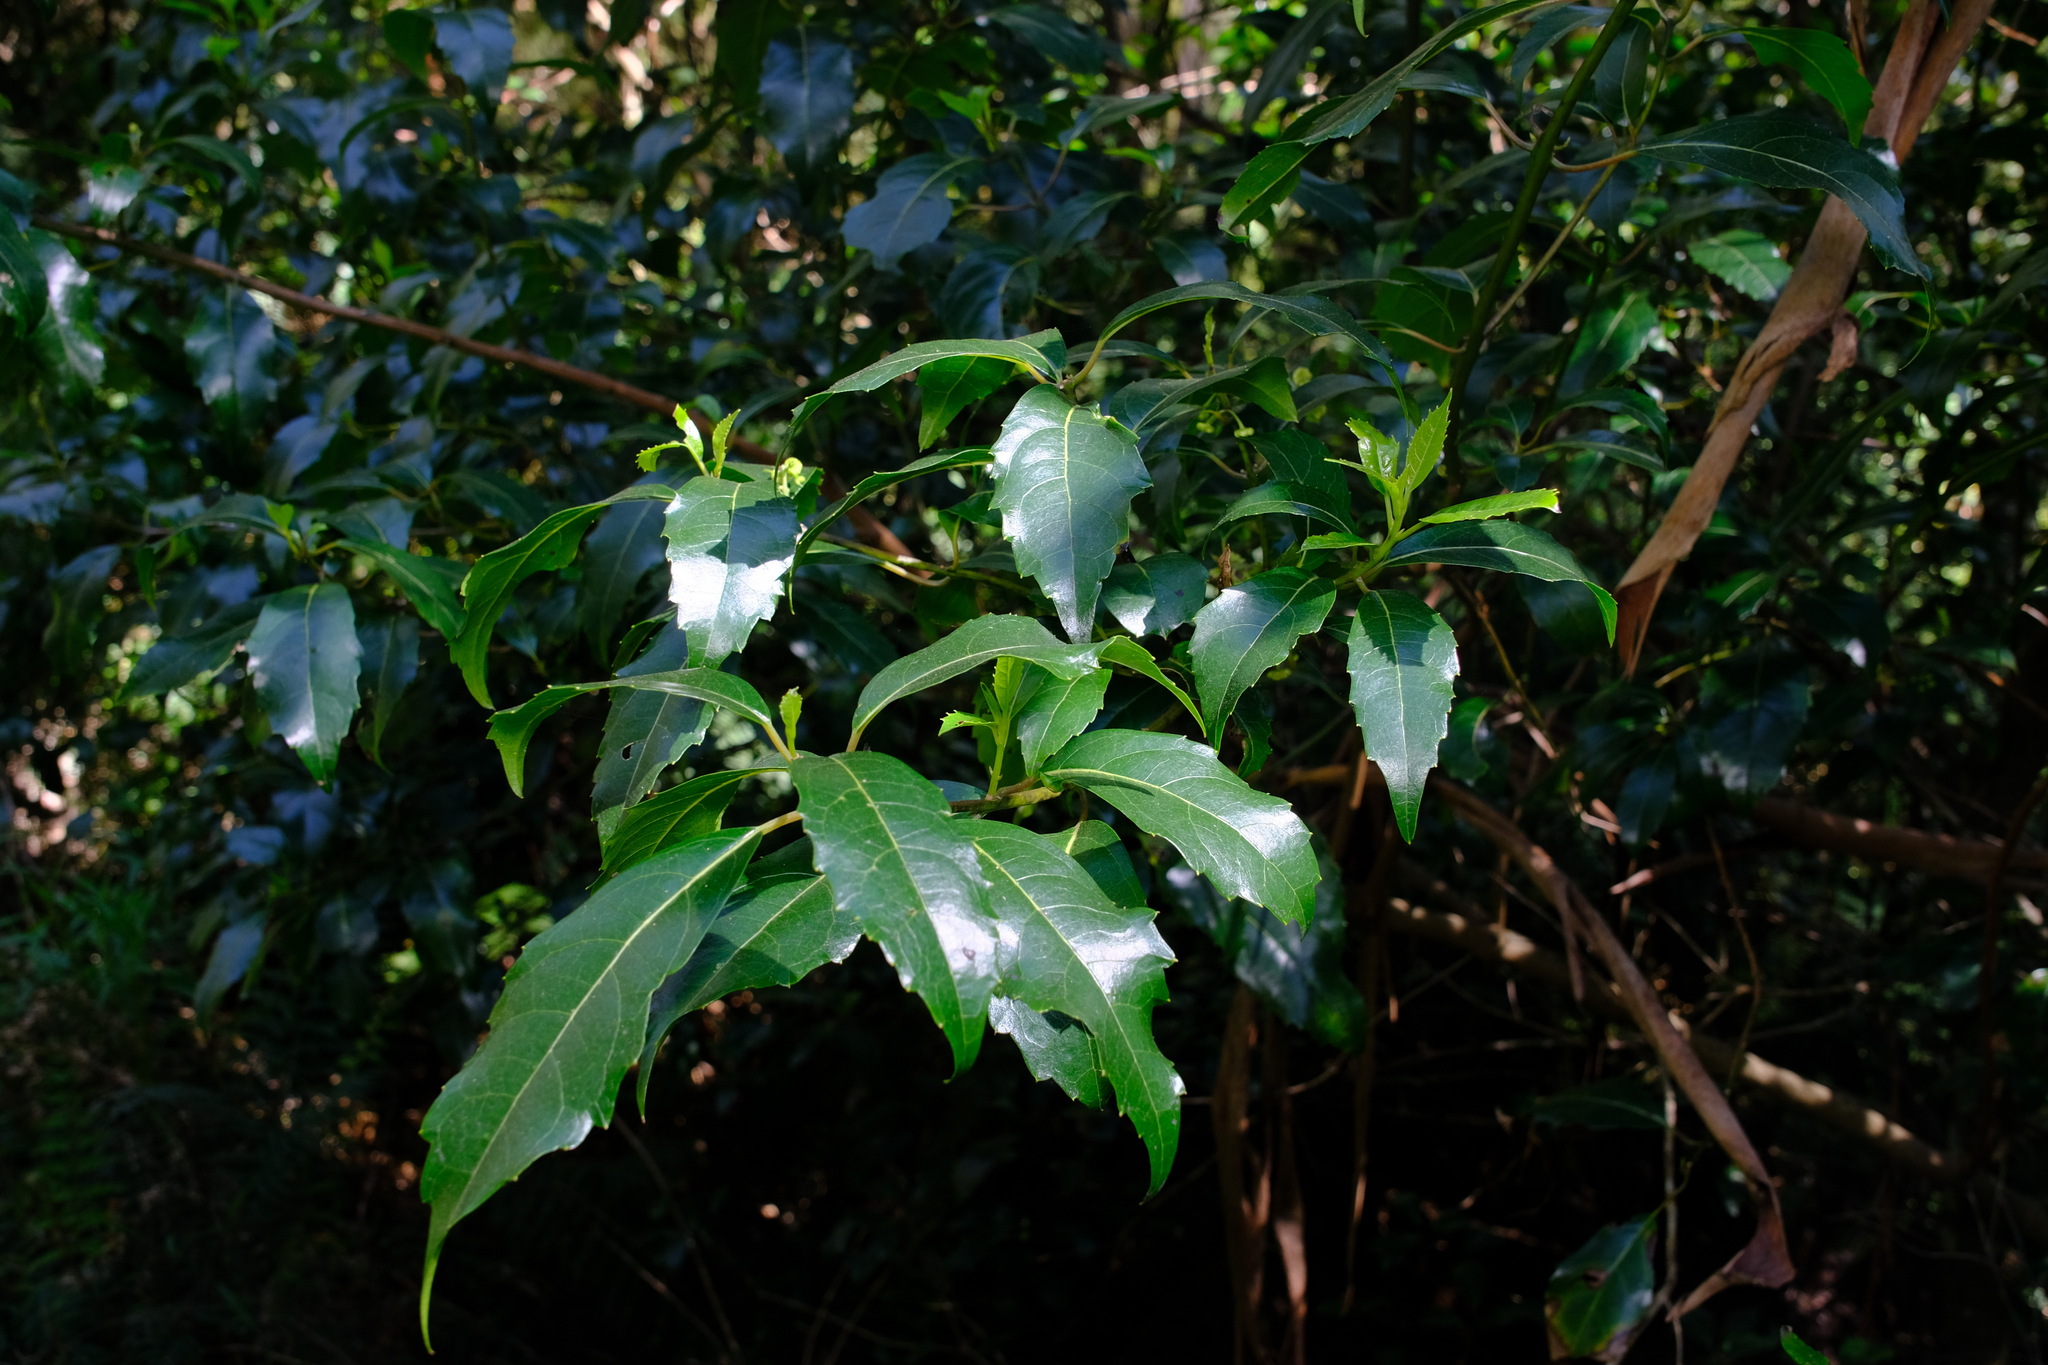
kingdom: Plantae
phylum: Tracheophyta
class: Magnoliopsida
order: Laurales
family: Monimiaceae
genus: Hedycarya
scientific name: Hedycarya angustifolia
